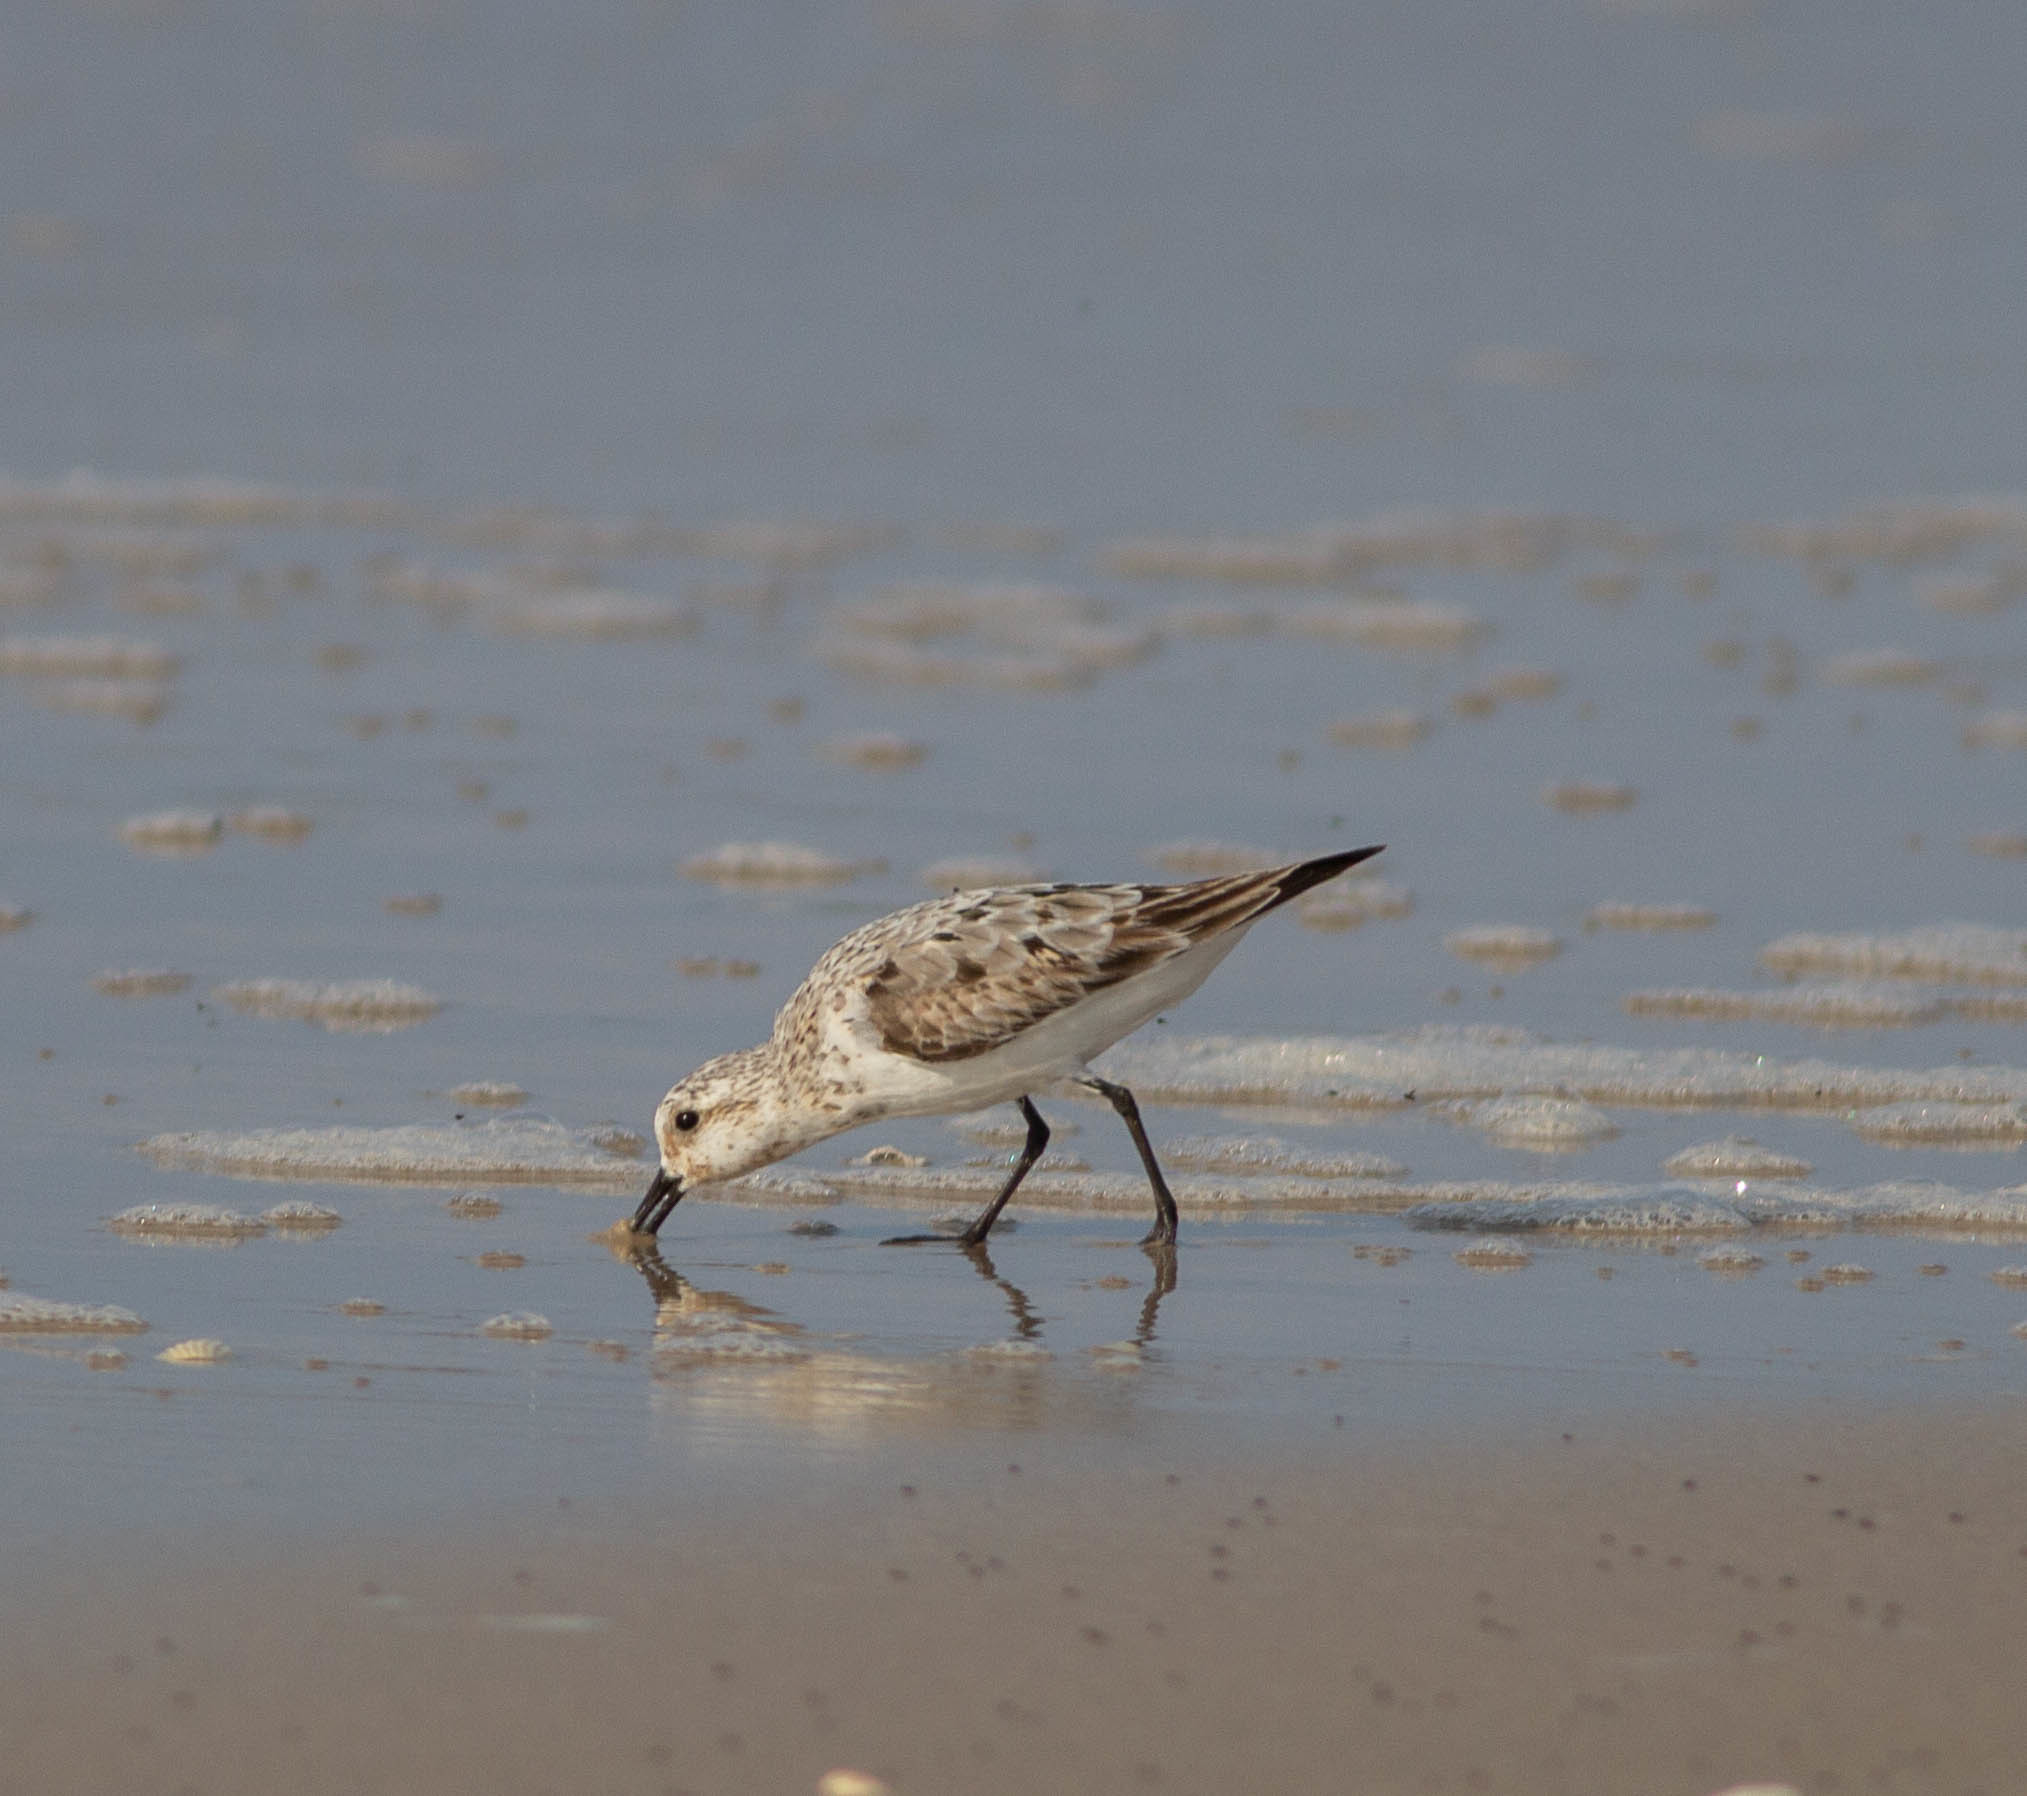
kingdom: Animalia
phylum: Chordata
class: Aves
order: Charadriiformes
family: Scolopacidae
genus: Calidris
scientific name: Calidris alba
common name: Sanderling
